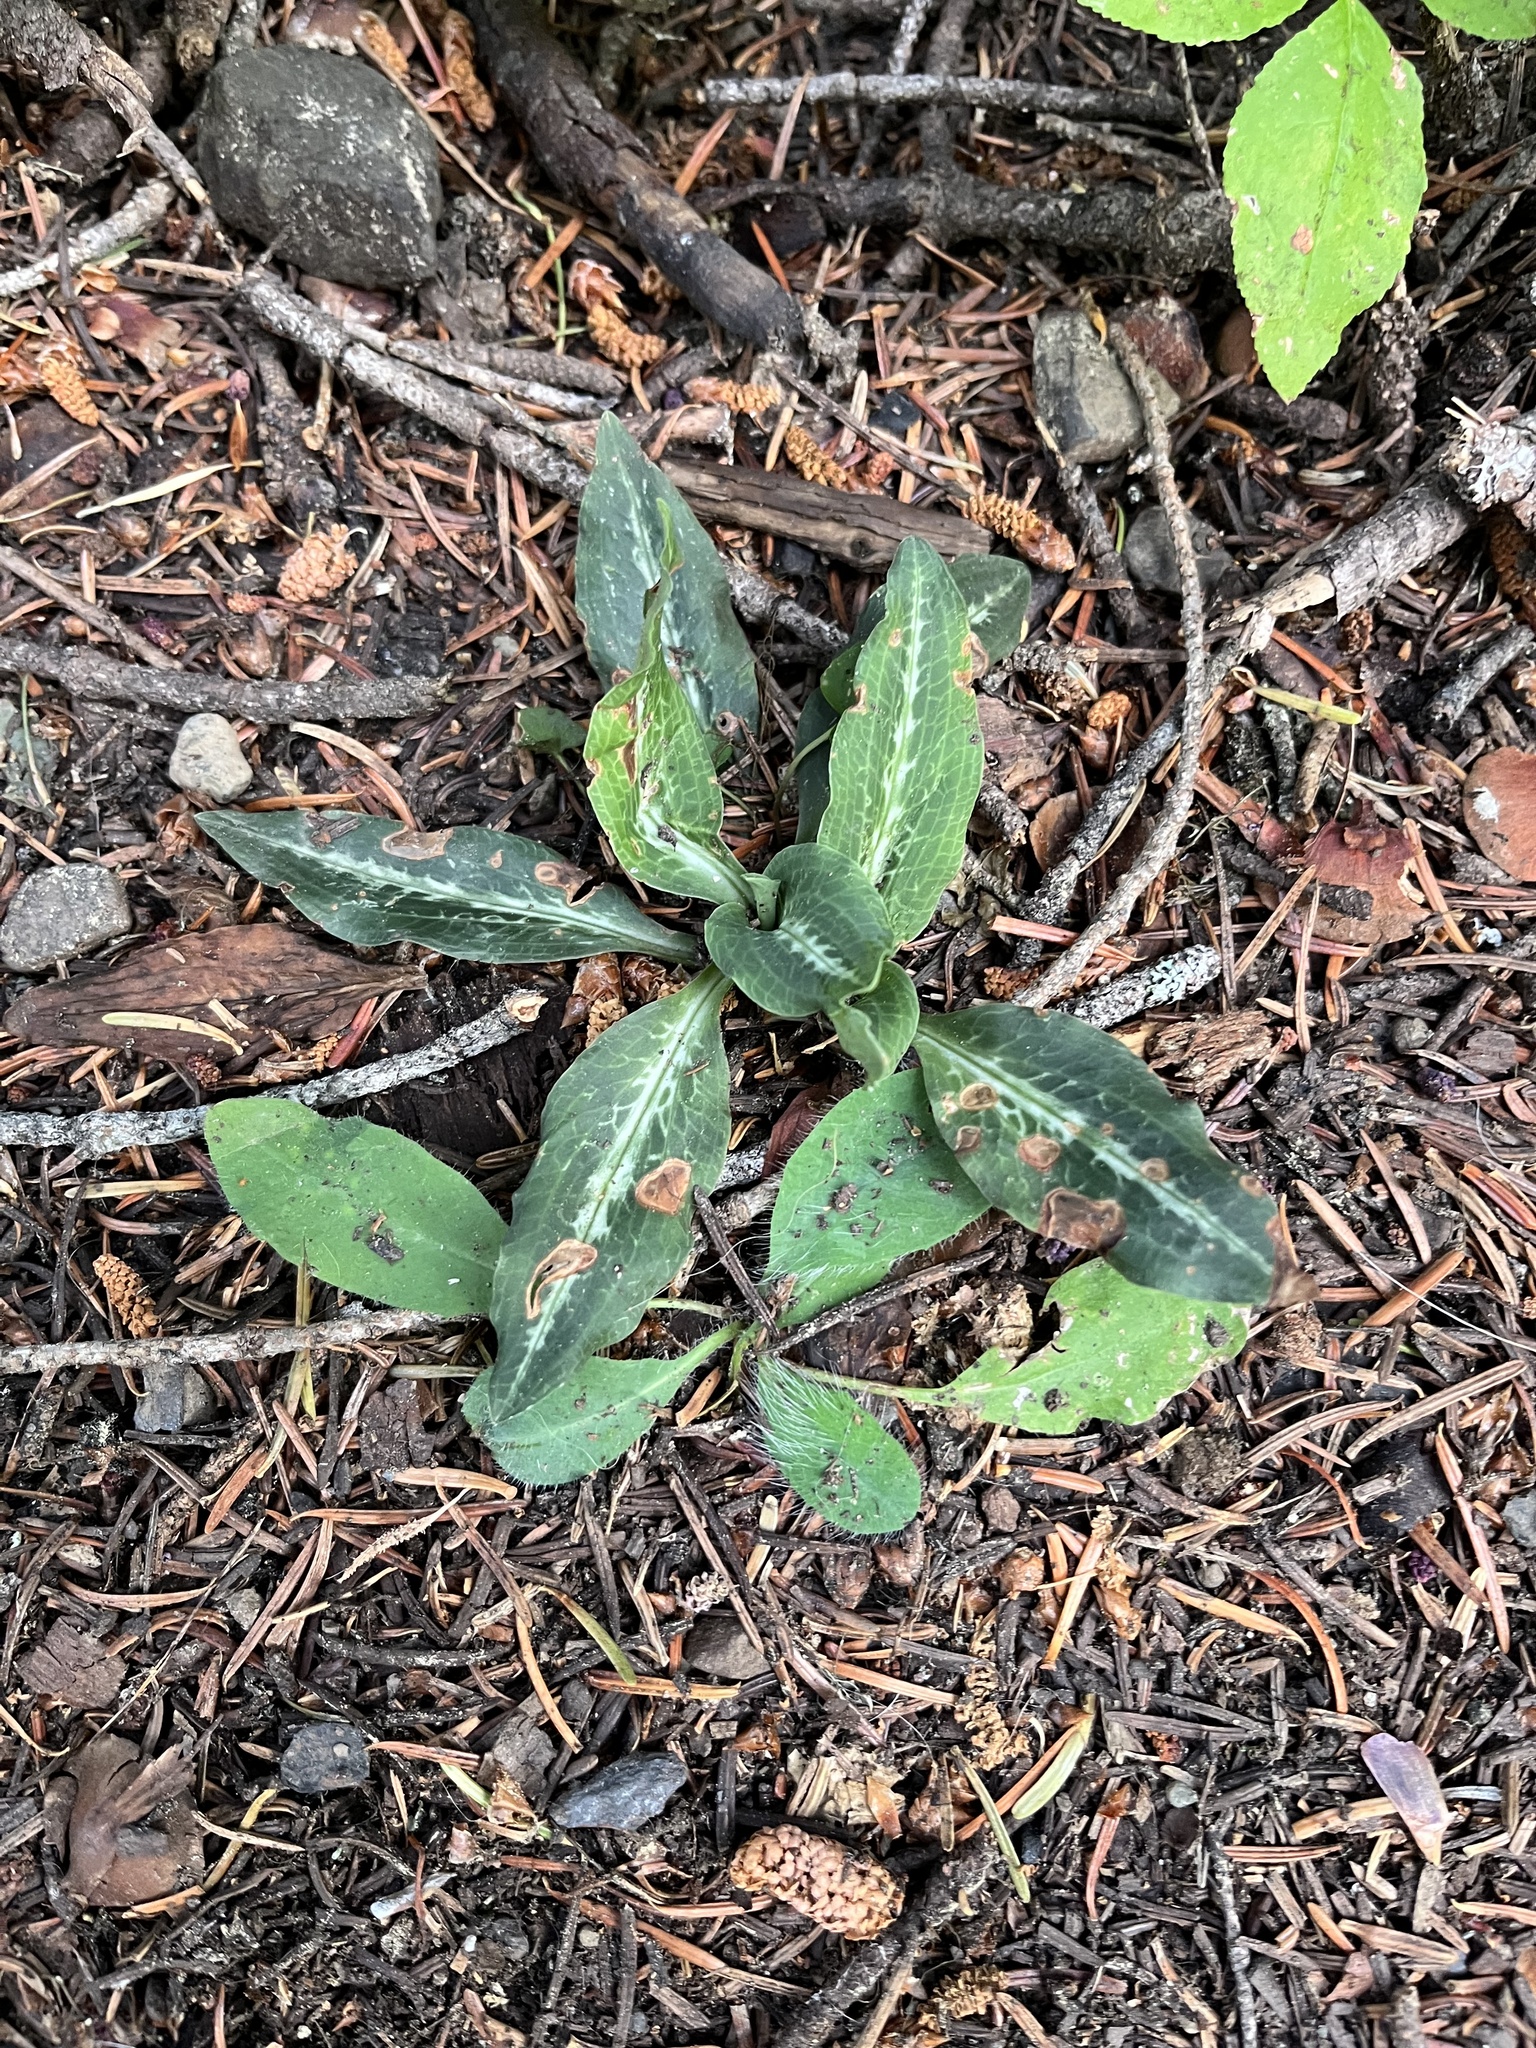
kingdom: Plantae
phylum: Tracheophyta
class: Liliopsida
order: Asparagales
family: Orchidaceae
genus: Goodyera
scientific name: Goodyera oblongifolia
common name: Giant rattlesnake-plantain
